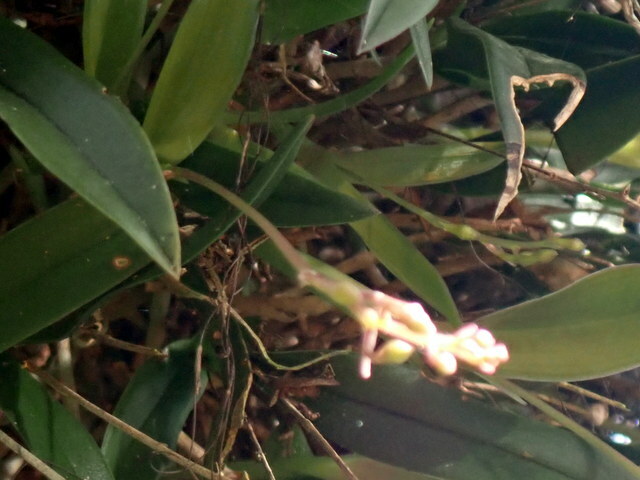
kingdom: Plantae
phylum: Tracheophyta
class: Liliopsida
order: Asparagales
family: Orchidaceae
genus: Epidendrum
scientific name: Epidendrum conopseum
